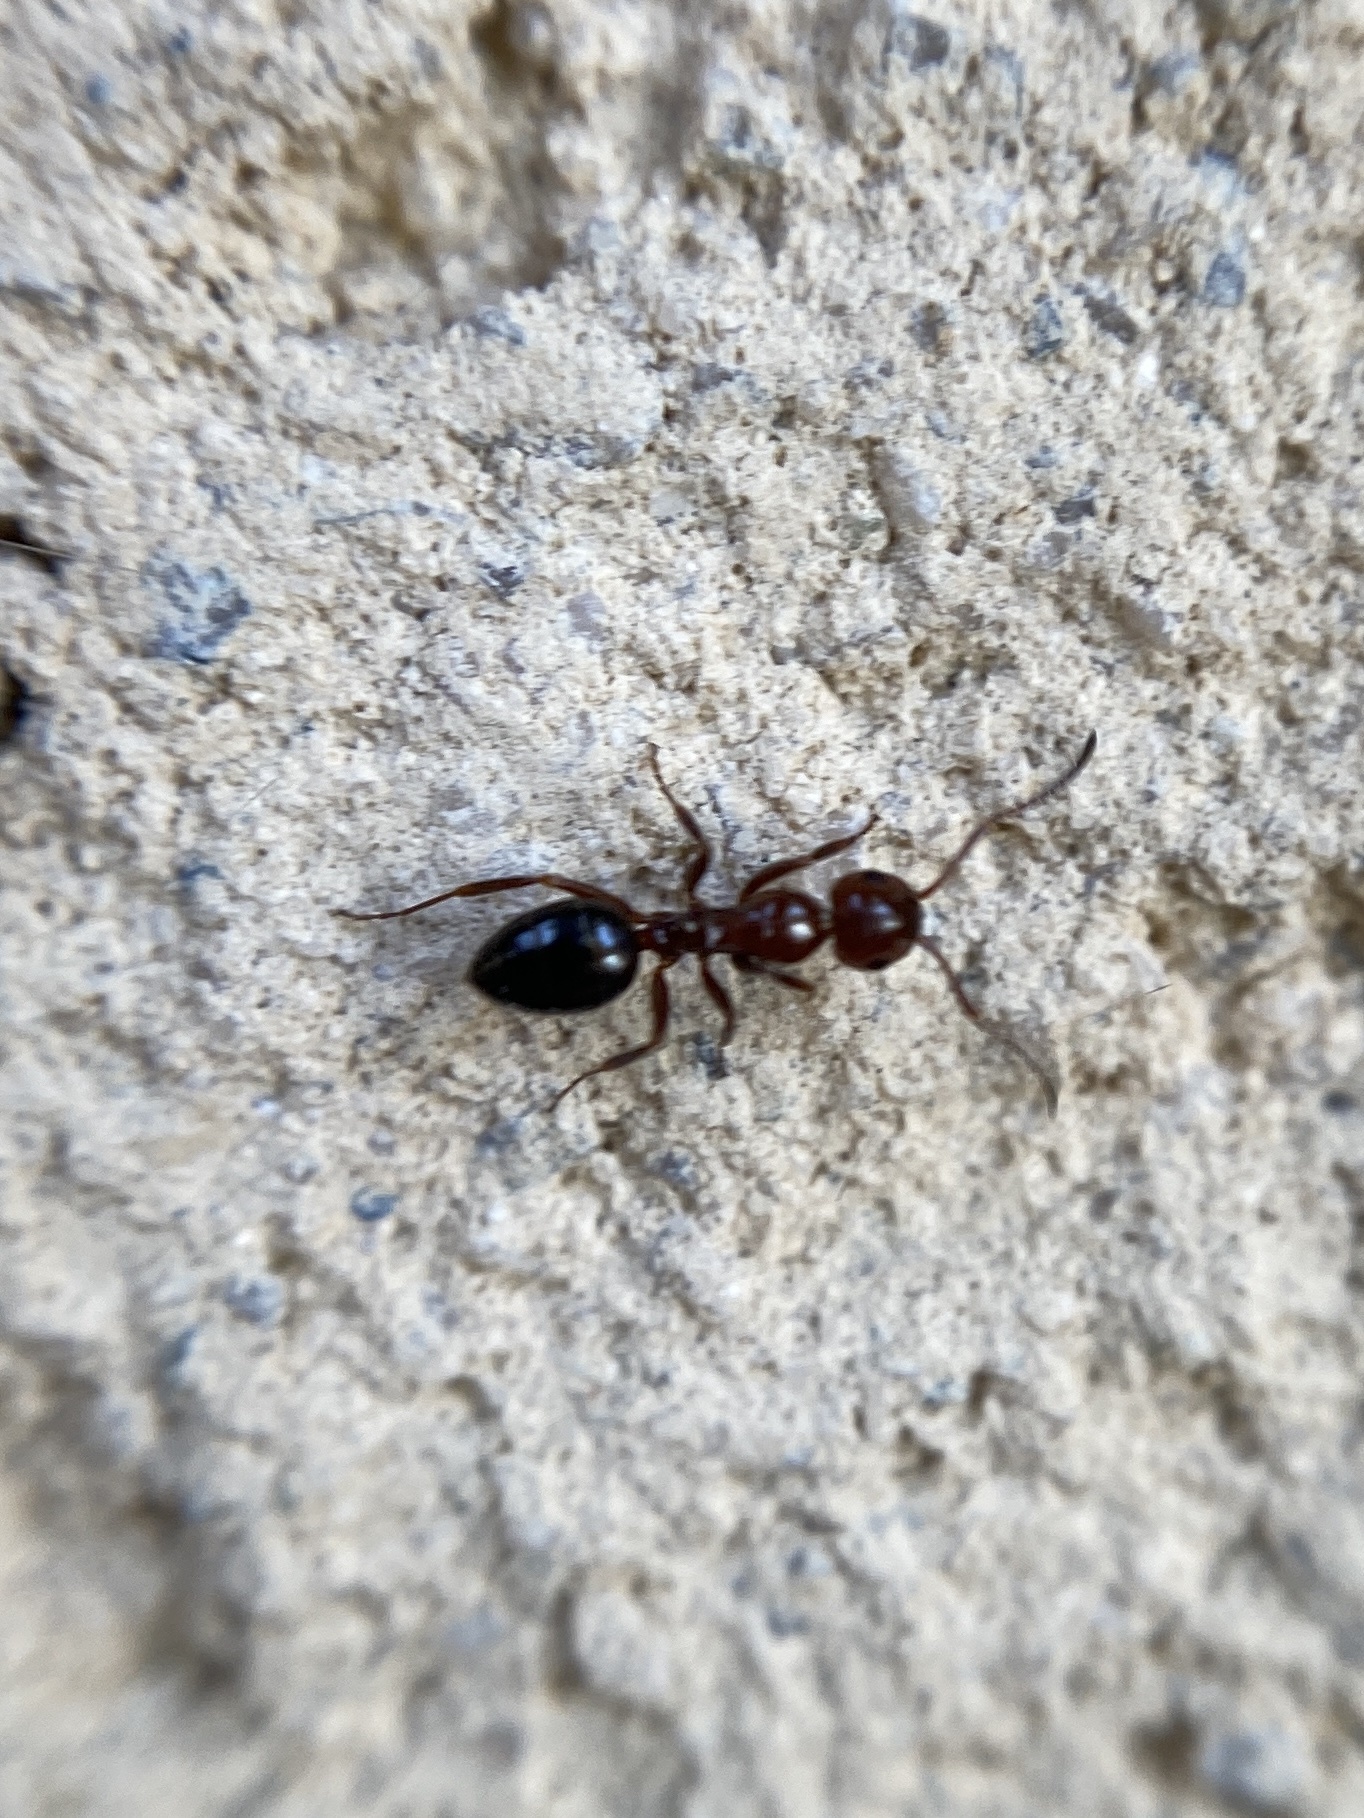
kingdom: Animalia
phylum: Arthropoda
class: Insecta
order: Hymenoptera
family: Formicidae
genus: Camponotus
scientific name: Camponotus lateralis
